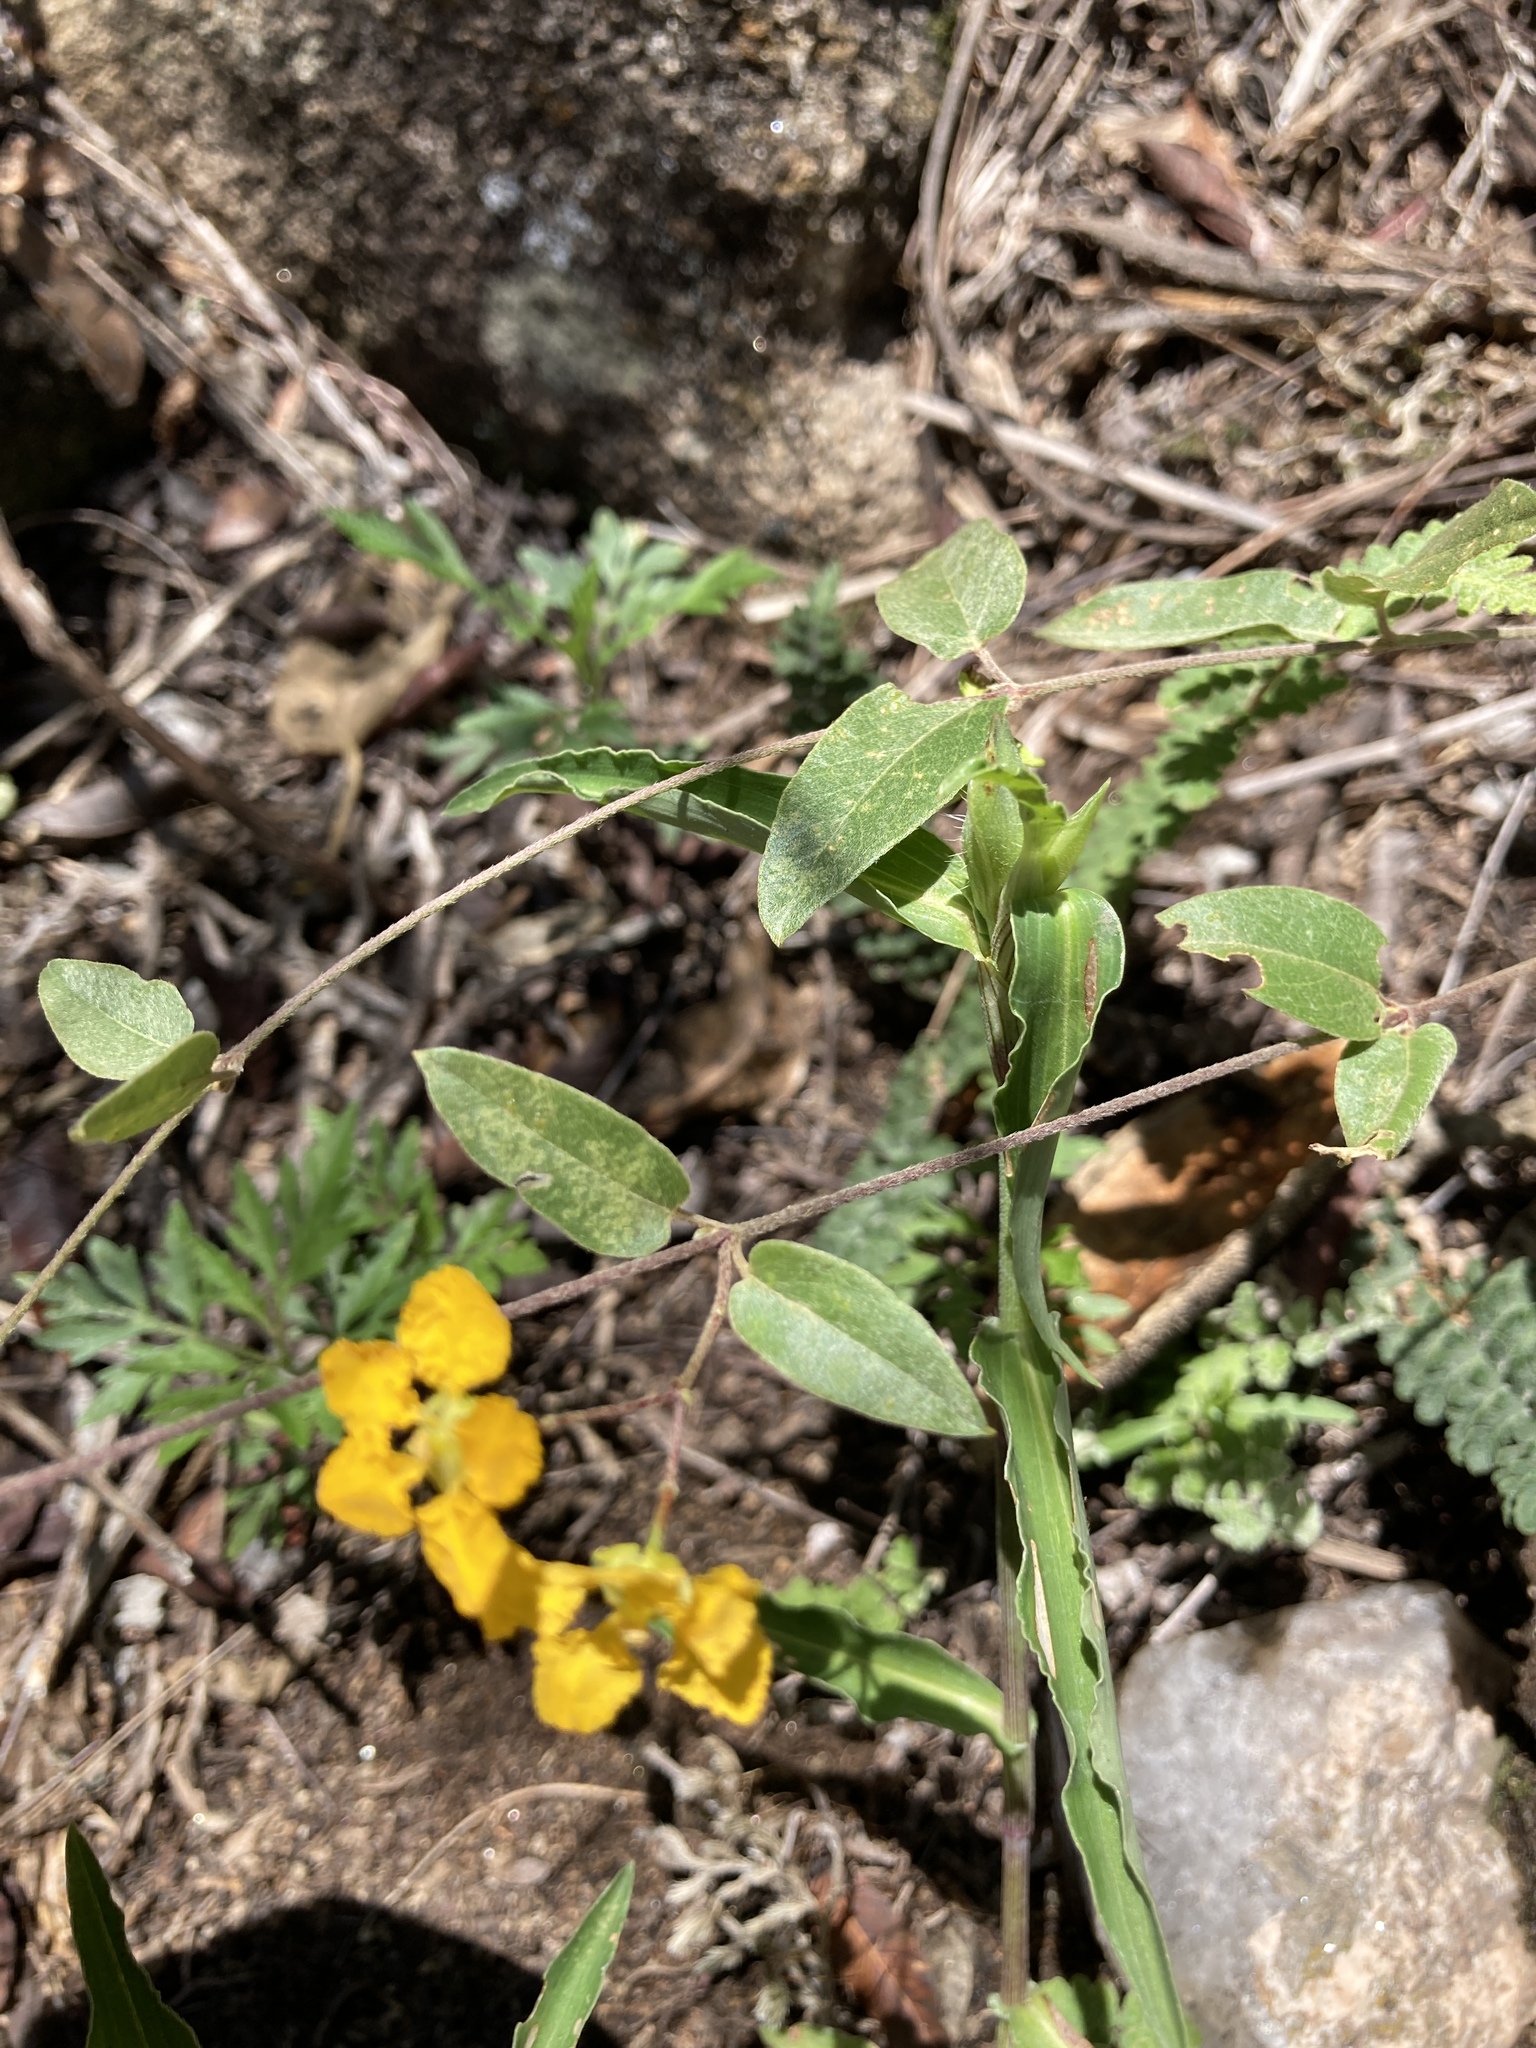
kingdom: Plantae
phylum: Tracheophyta
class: Magnoliopsida
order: Malpighiales
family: Malpighiaceae
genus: Janusia
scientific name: Janusia guaranitica
